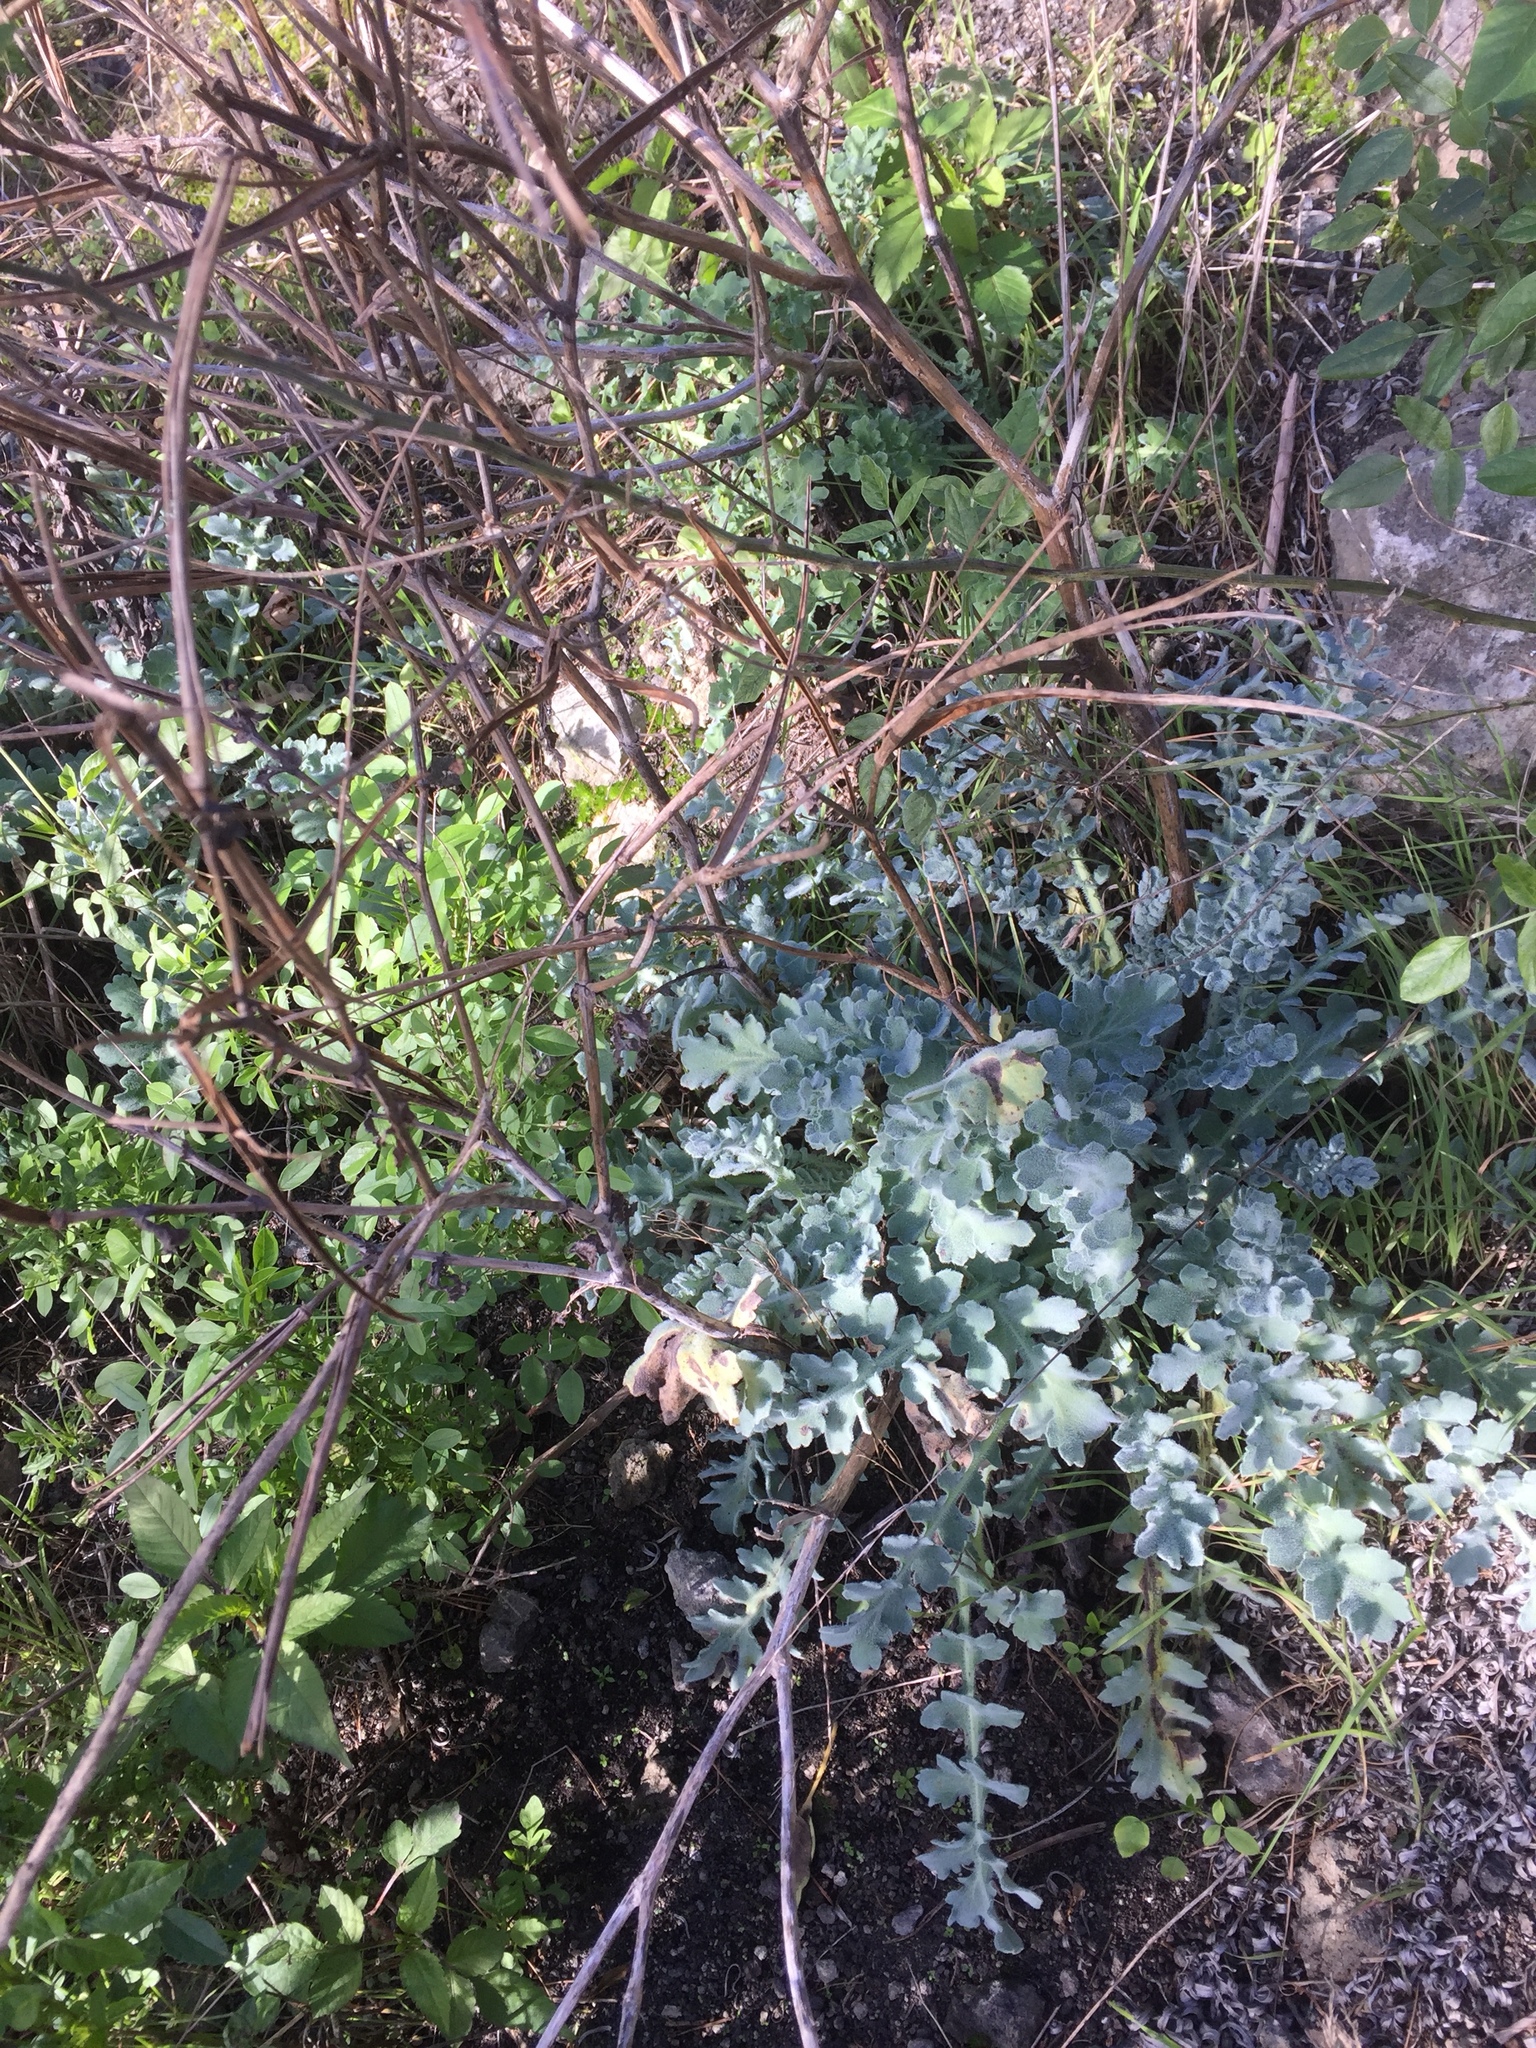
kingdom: Plantae
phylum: Tracheophyta
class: Magnoliopsida
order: Ranunculales
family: Papaveraceae
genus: Glaucium
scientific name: Glaucium flavum
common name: Yellow horned-poppy
